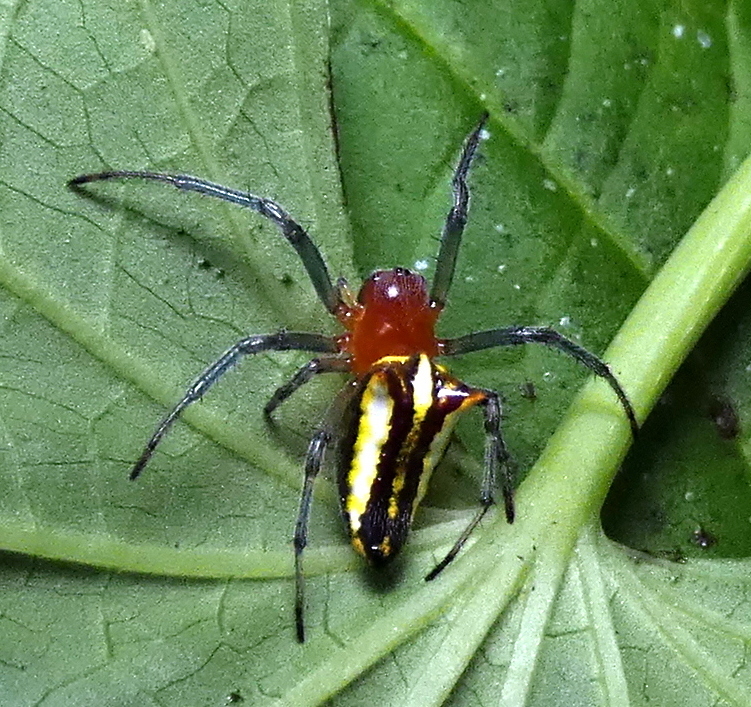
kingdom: Animalia
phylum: Arthropoda
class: Arachnida
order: Araneae
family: Araneidae
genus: Alpaida
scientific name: Alpaida bicornuta
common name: Orb weavers
